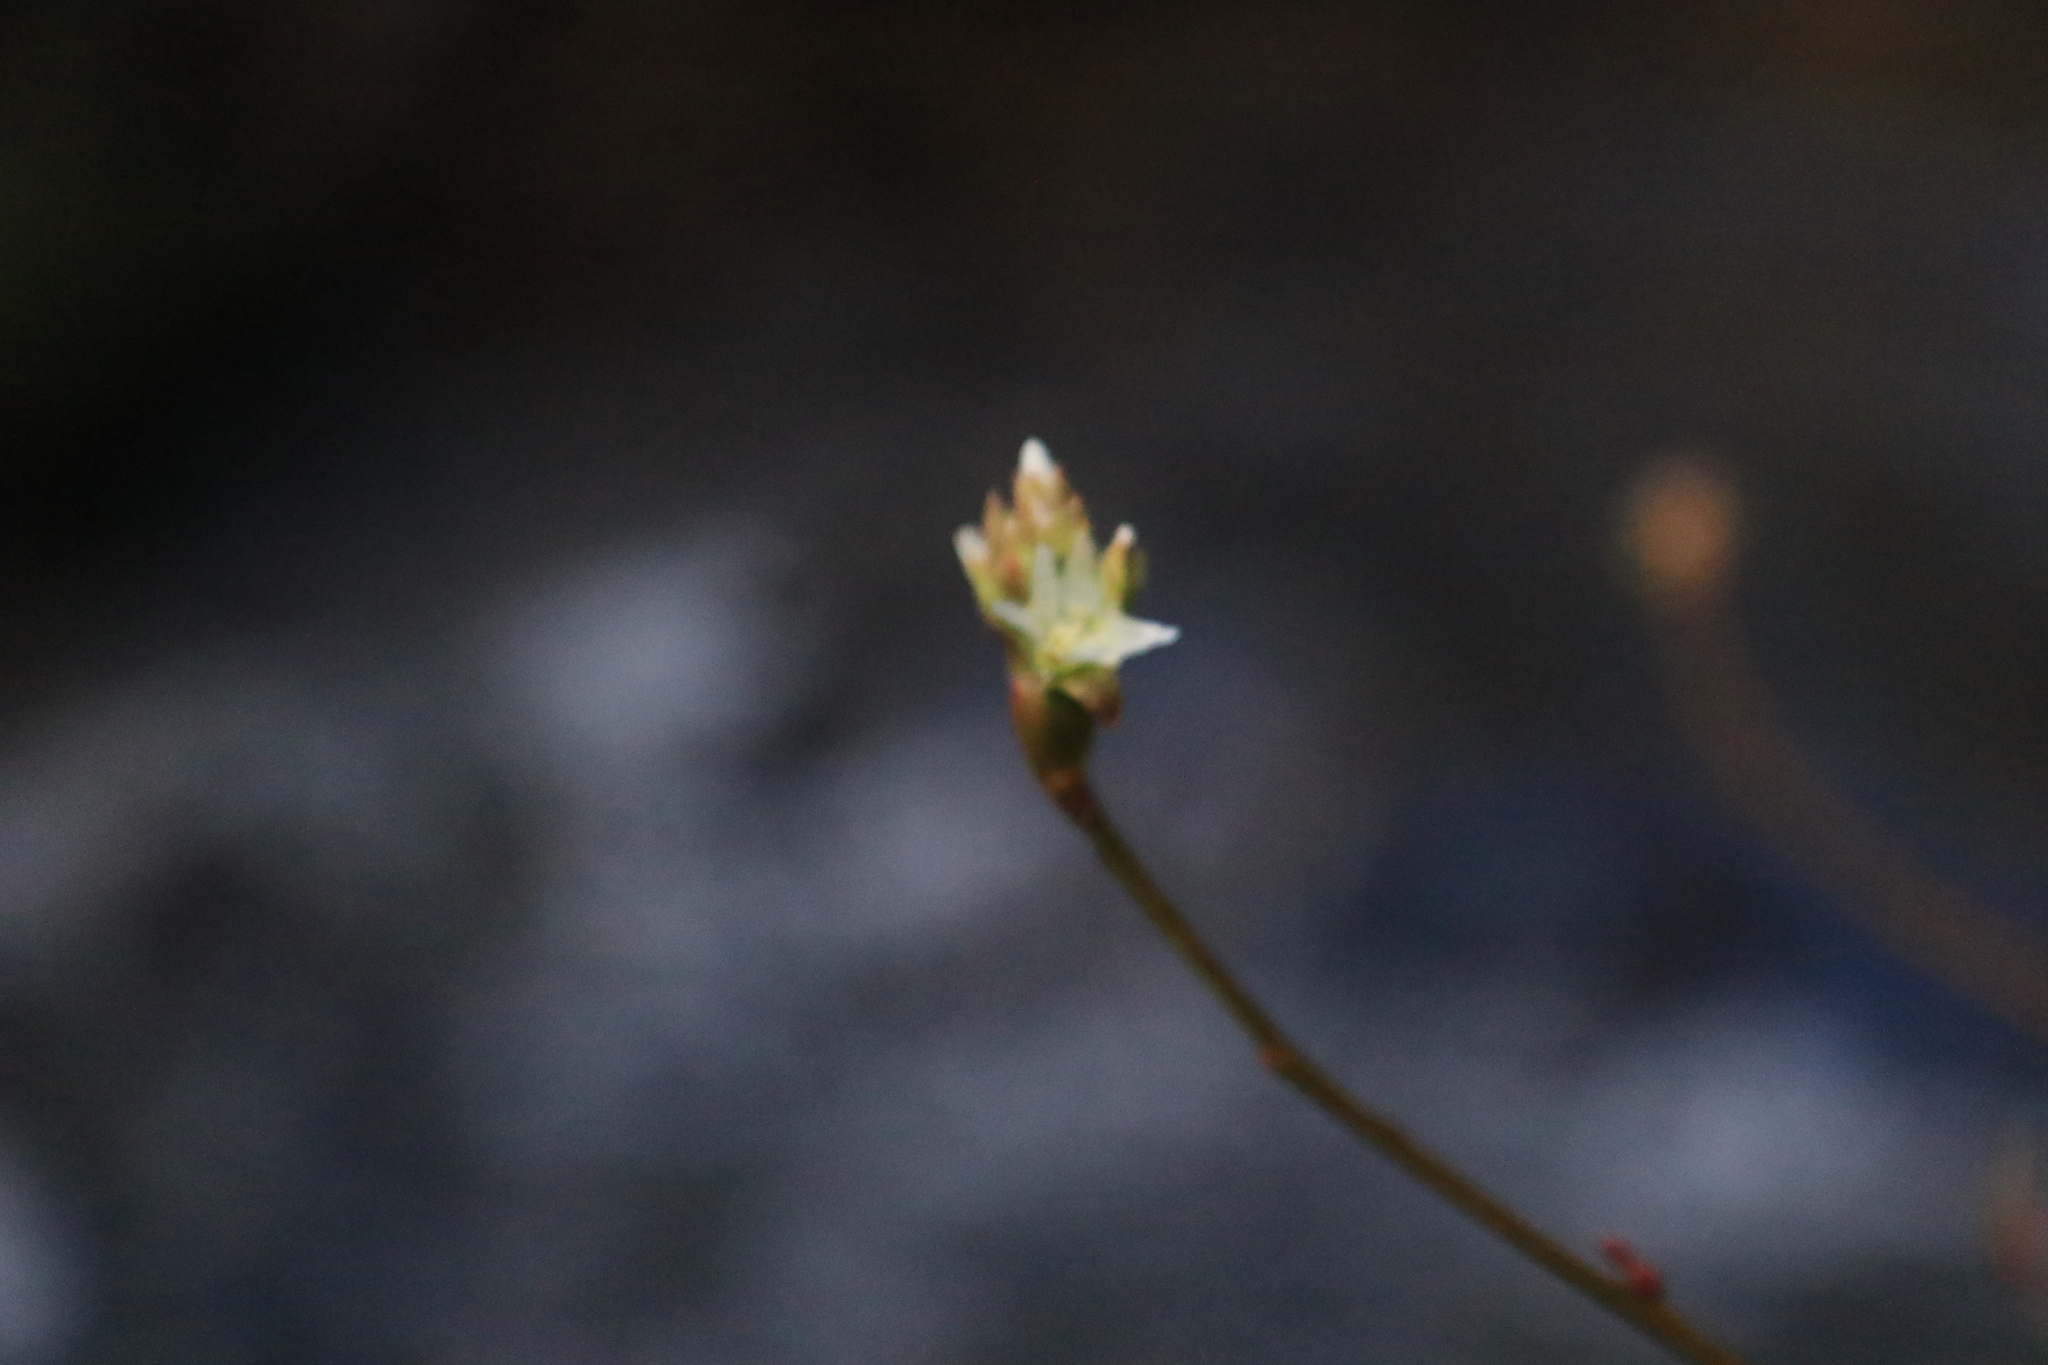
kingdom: Plantae
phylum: Tracheophyta
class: Magnoliopsida
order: Rosales
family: Rosaceae
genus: Oemleria
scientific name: Oemleria cerasiformis
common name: Osoberry
